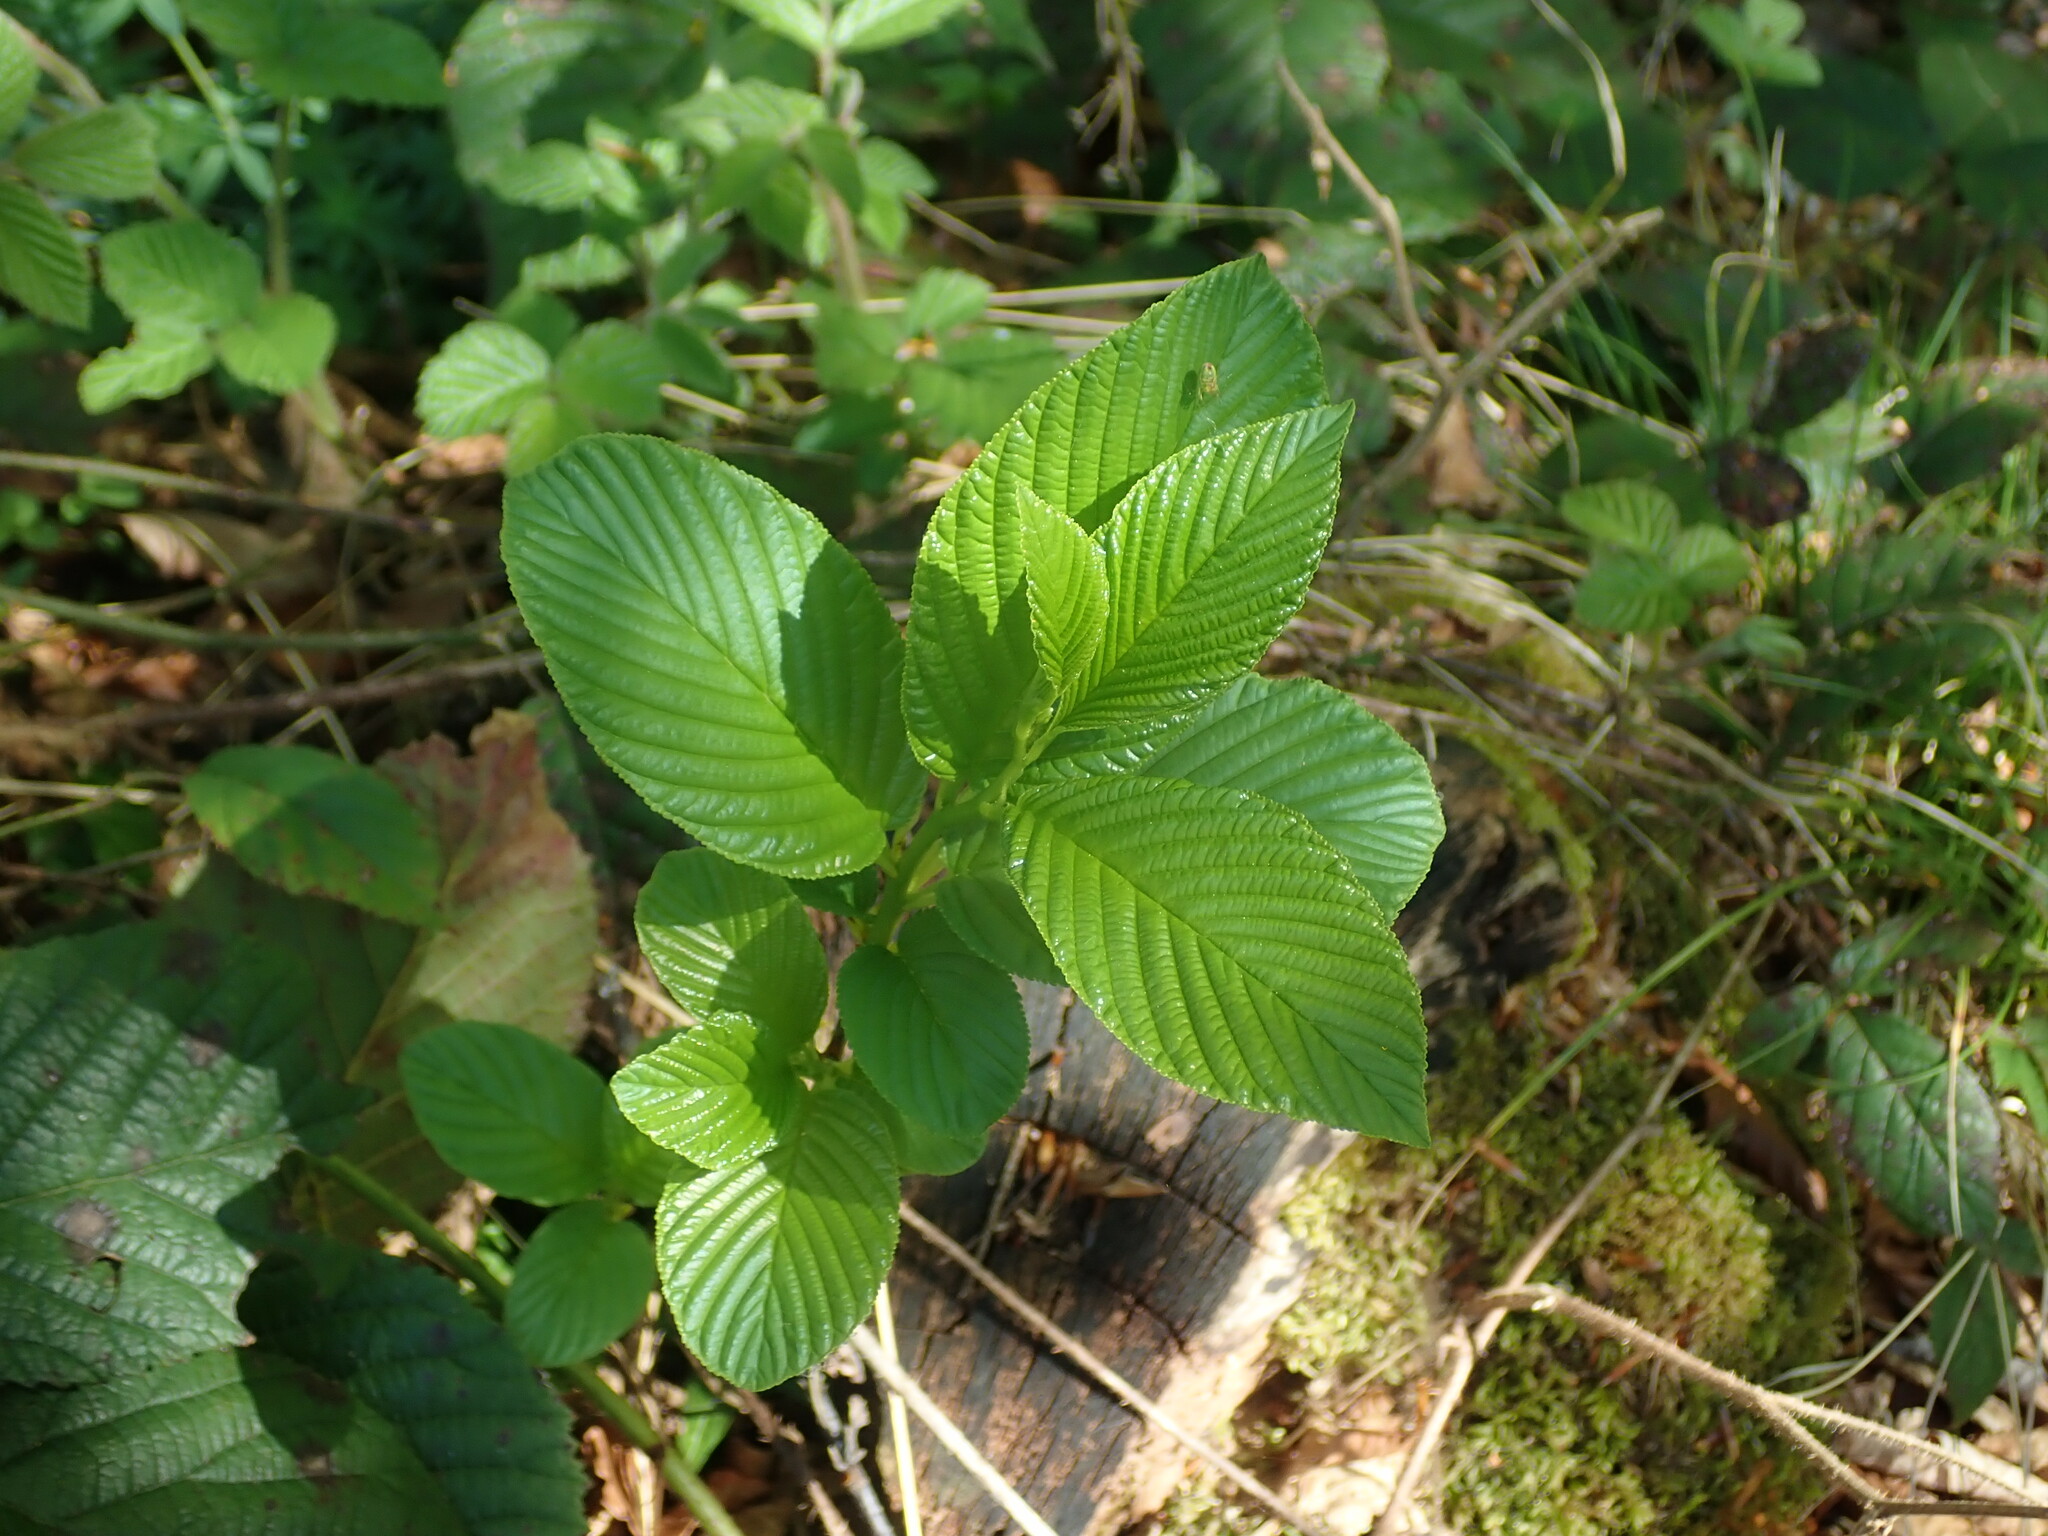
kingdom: Plantae
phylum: Tracheophyta
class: Magnoliopsida
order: Rosales
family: Rhamnaceae
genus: Atadinus
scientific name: Atadinus fallax
